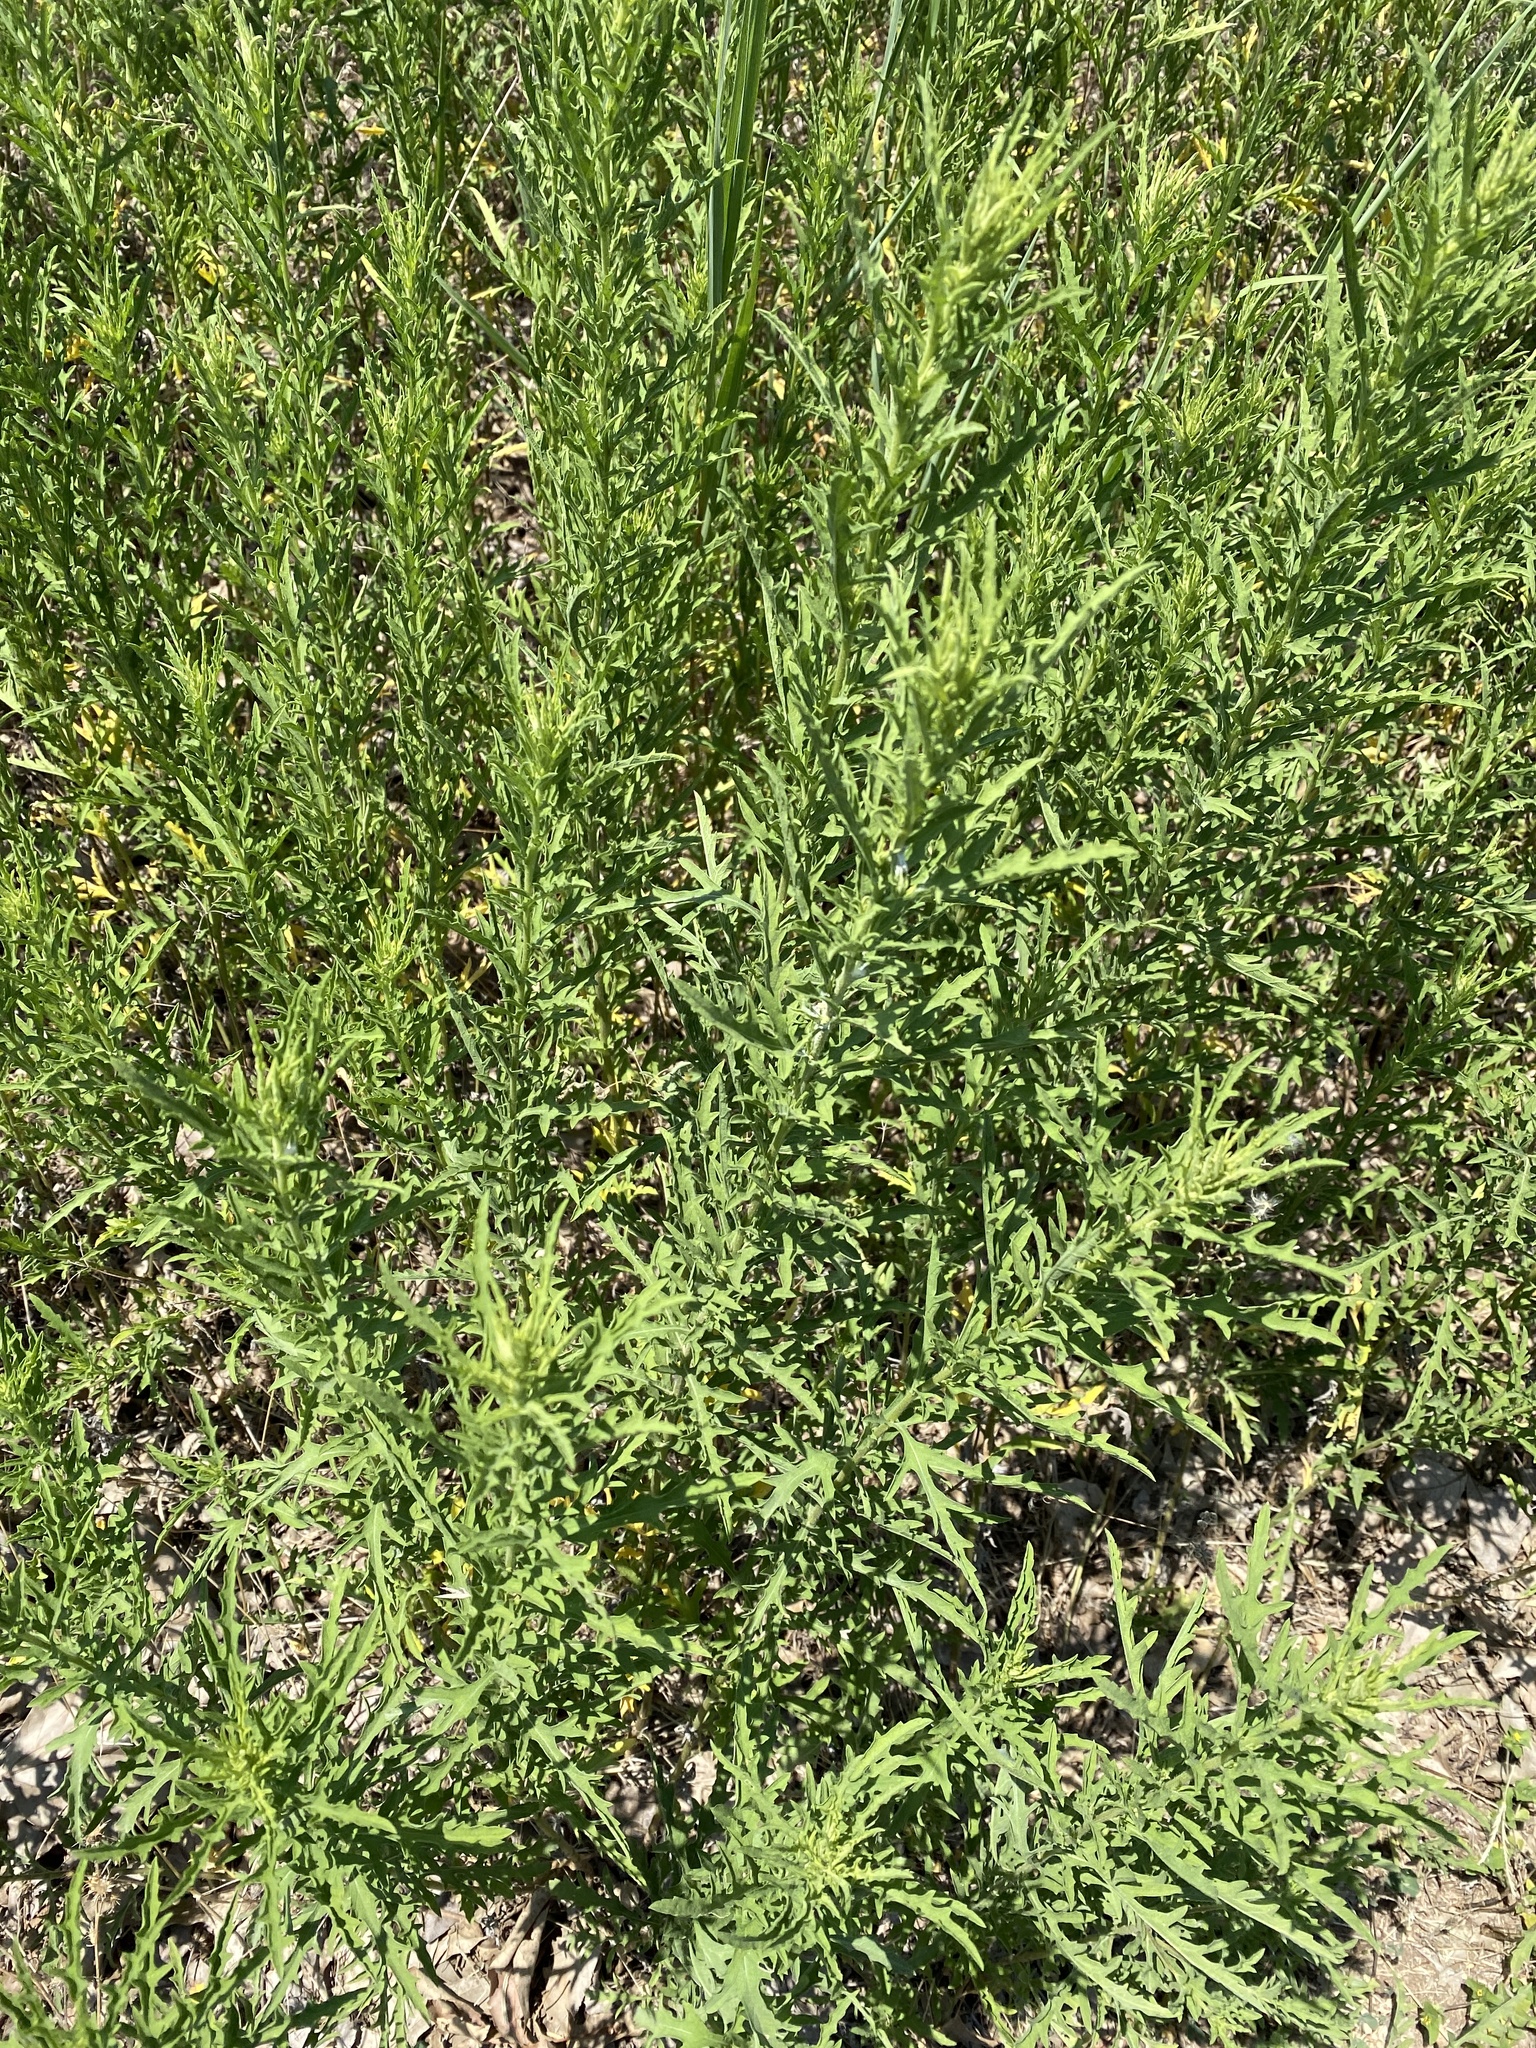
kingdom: Plantae
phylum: Tracheophyta
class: Magnoliopsida
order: Asterales
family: Asteraceae
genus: Ambrosia
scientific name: Ambrosia psilostachya
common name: Perennial ragweed
